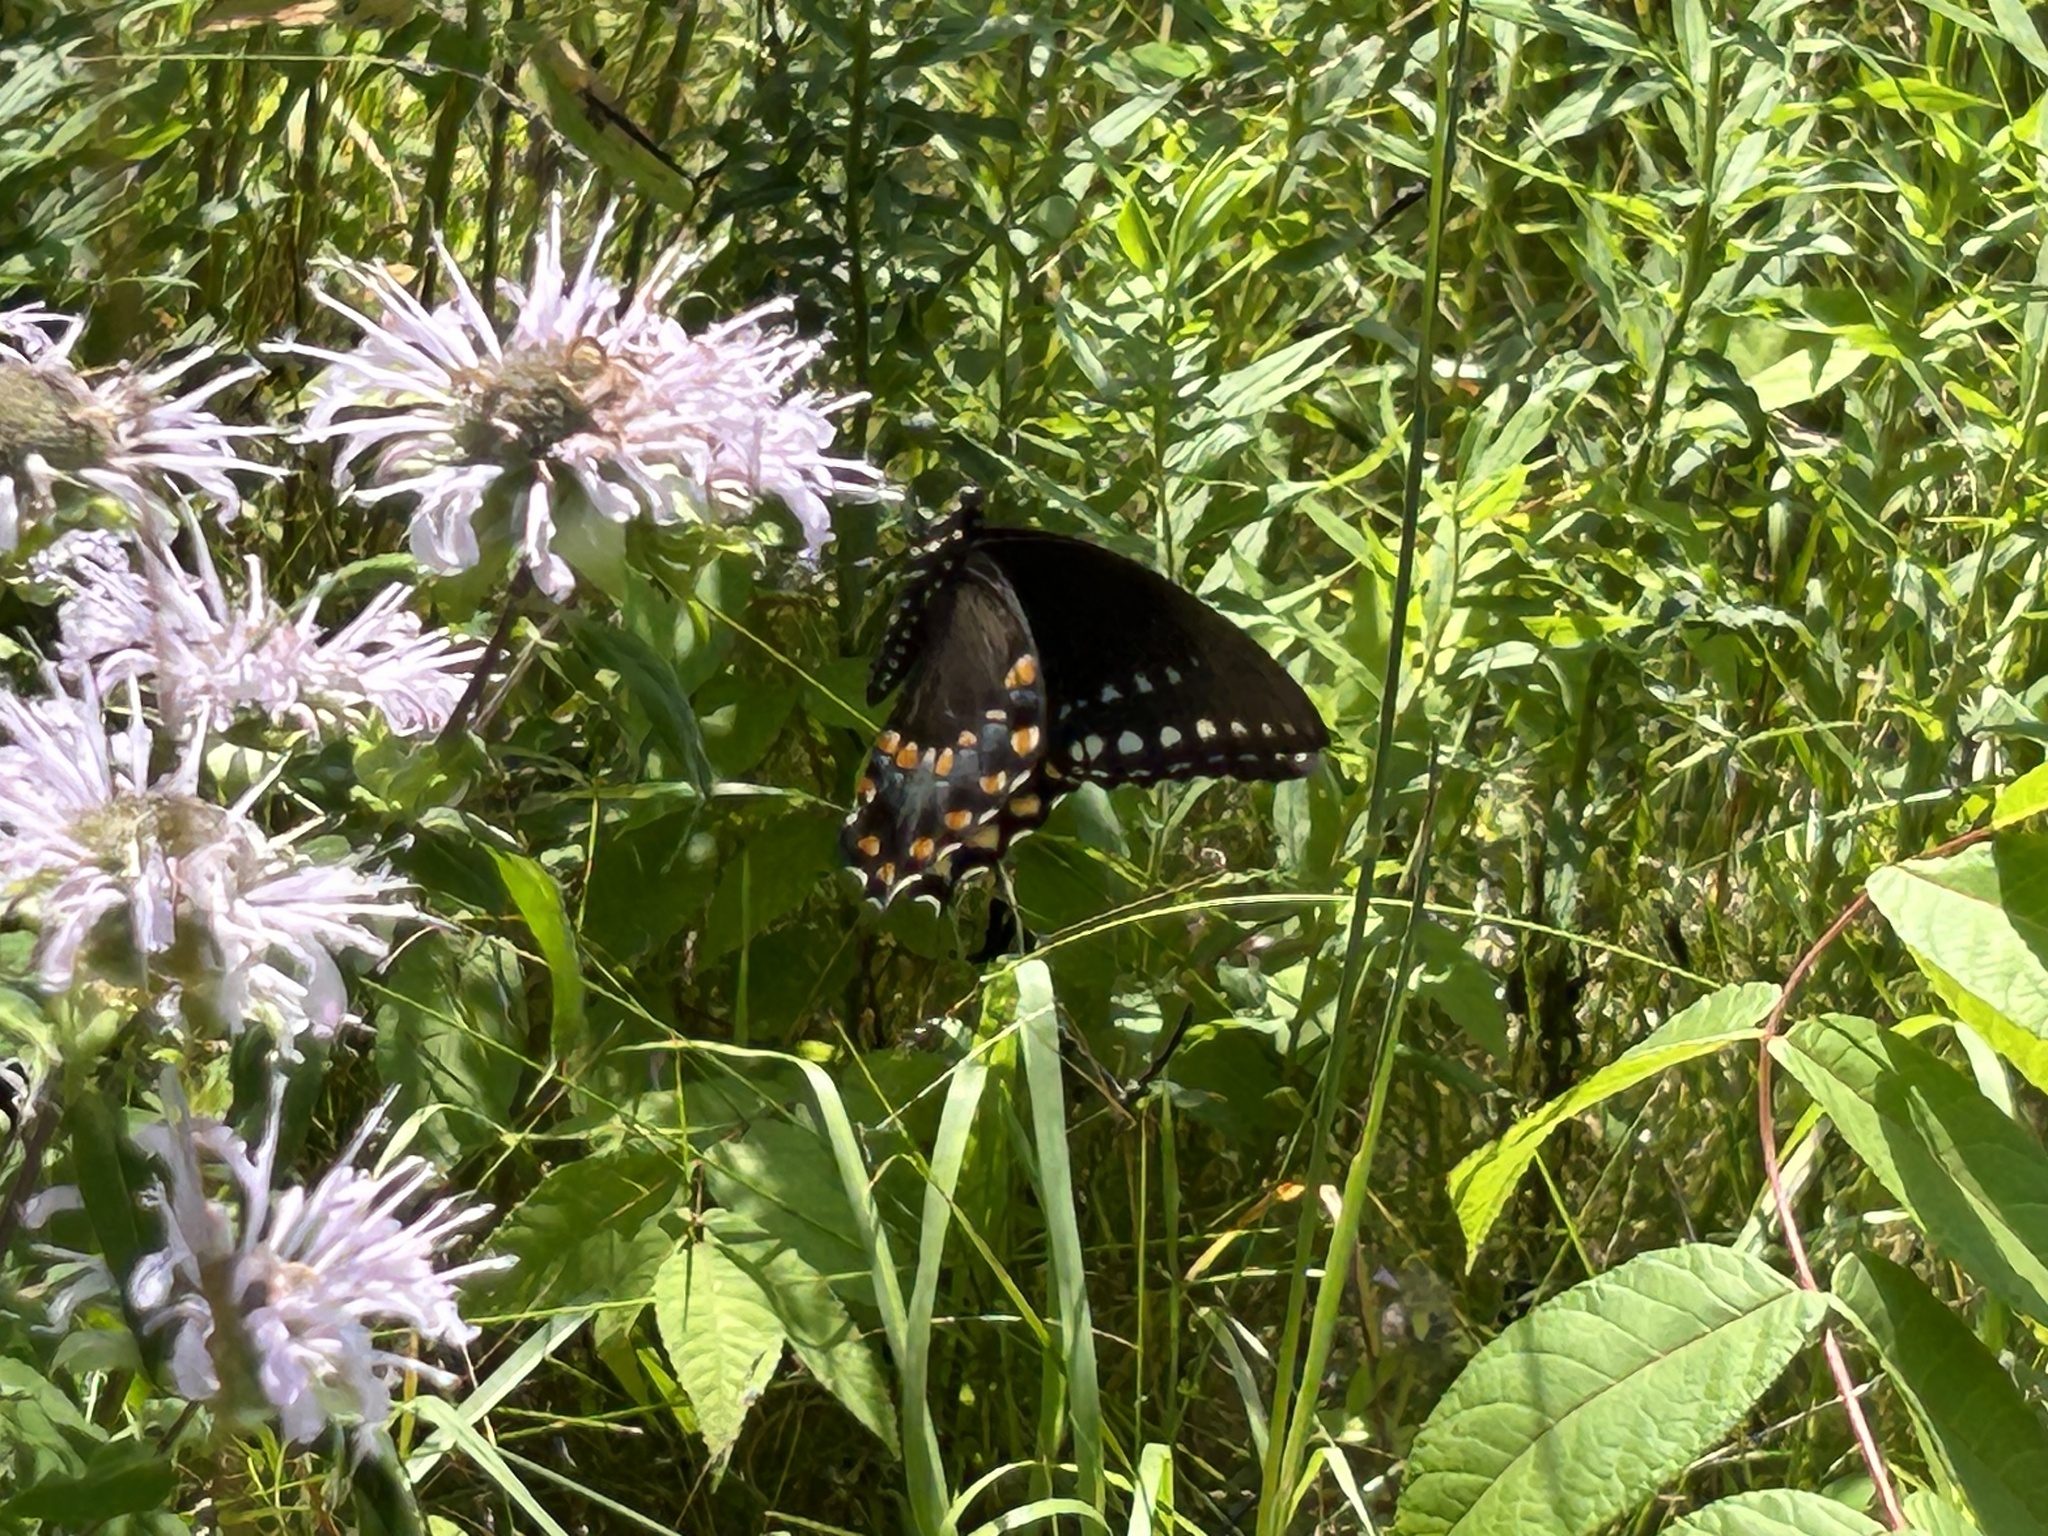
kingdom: Animalia
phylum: Arthropoda
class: Insecta
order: Lepidoptera
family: Papilionidae
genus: Papilio
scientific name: Papilio troilus
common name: Spicebush swallowtail
